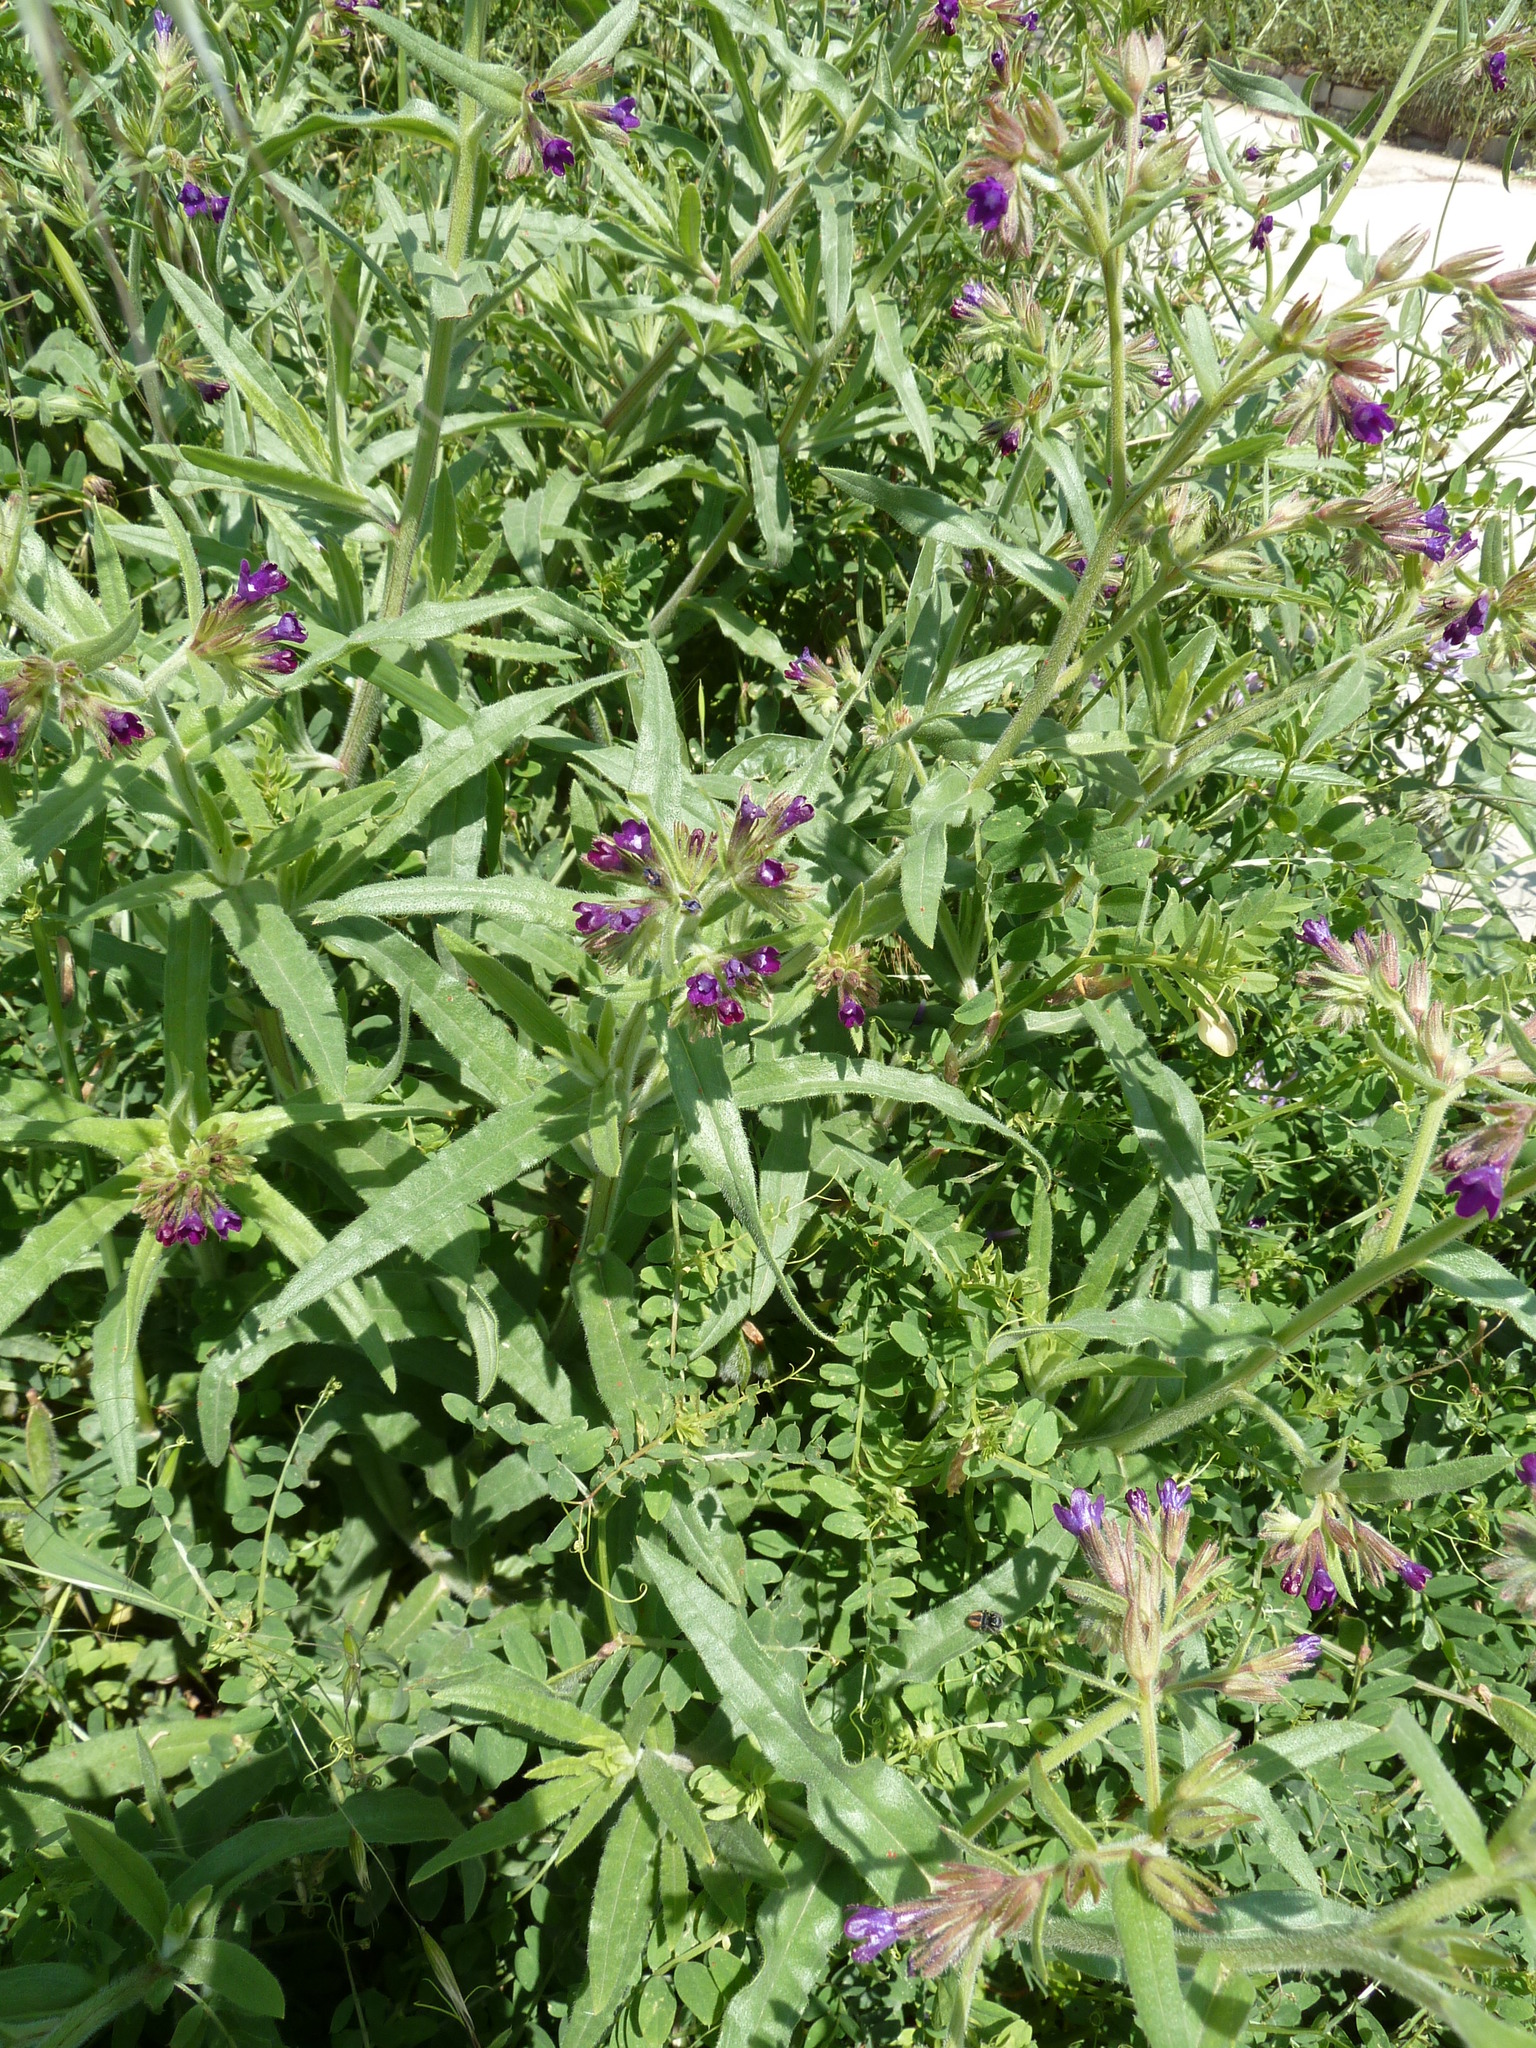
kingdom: Plantae
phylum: Tracheophyta
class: Magnoliopsida
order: Boraginales
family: Boraginaceae
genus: Anchusa
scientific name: Anchusa officinalis
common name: Alkanet
